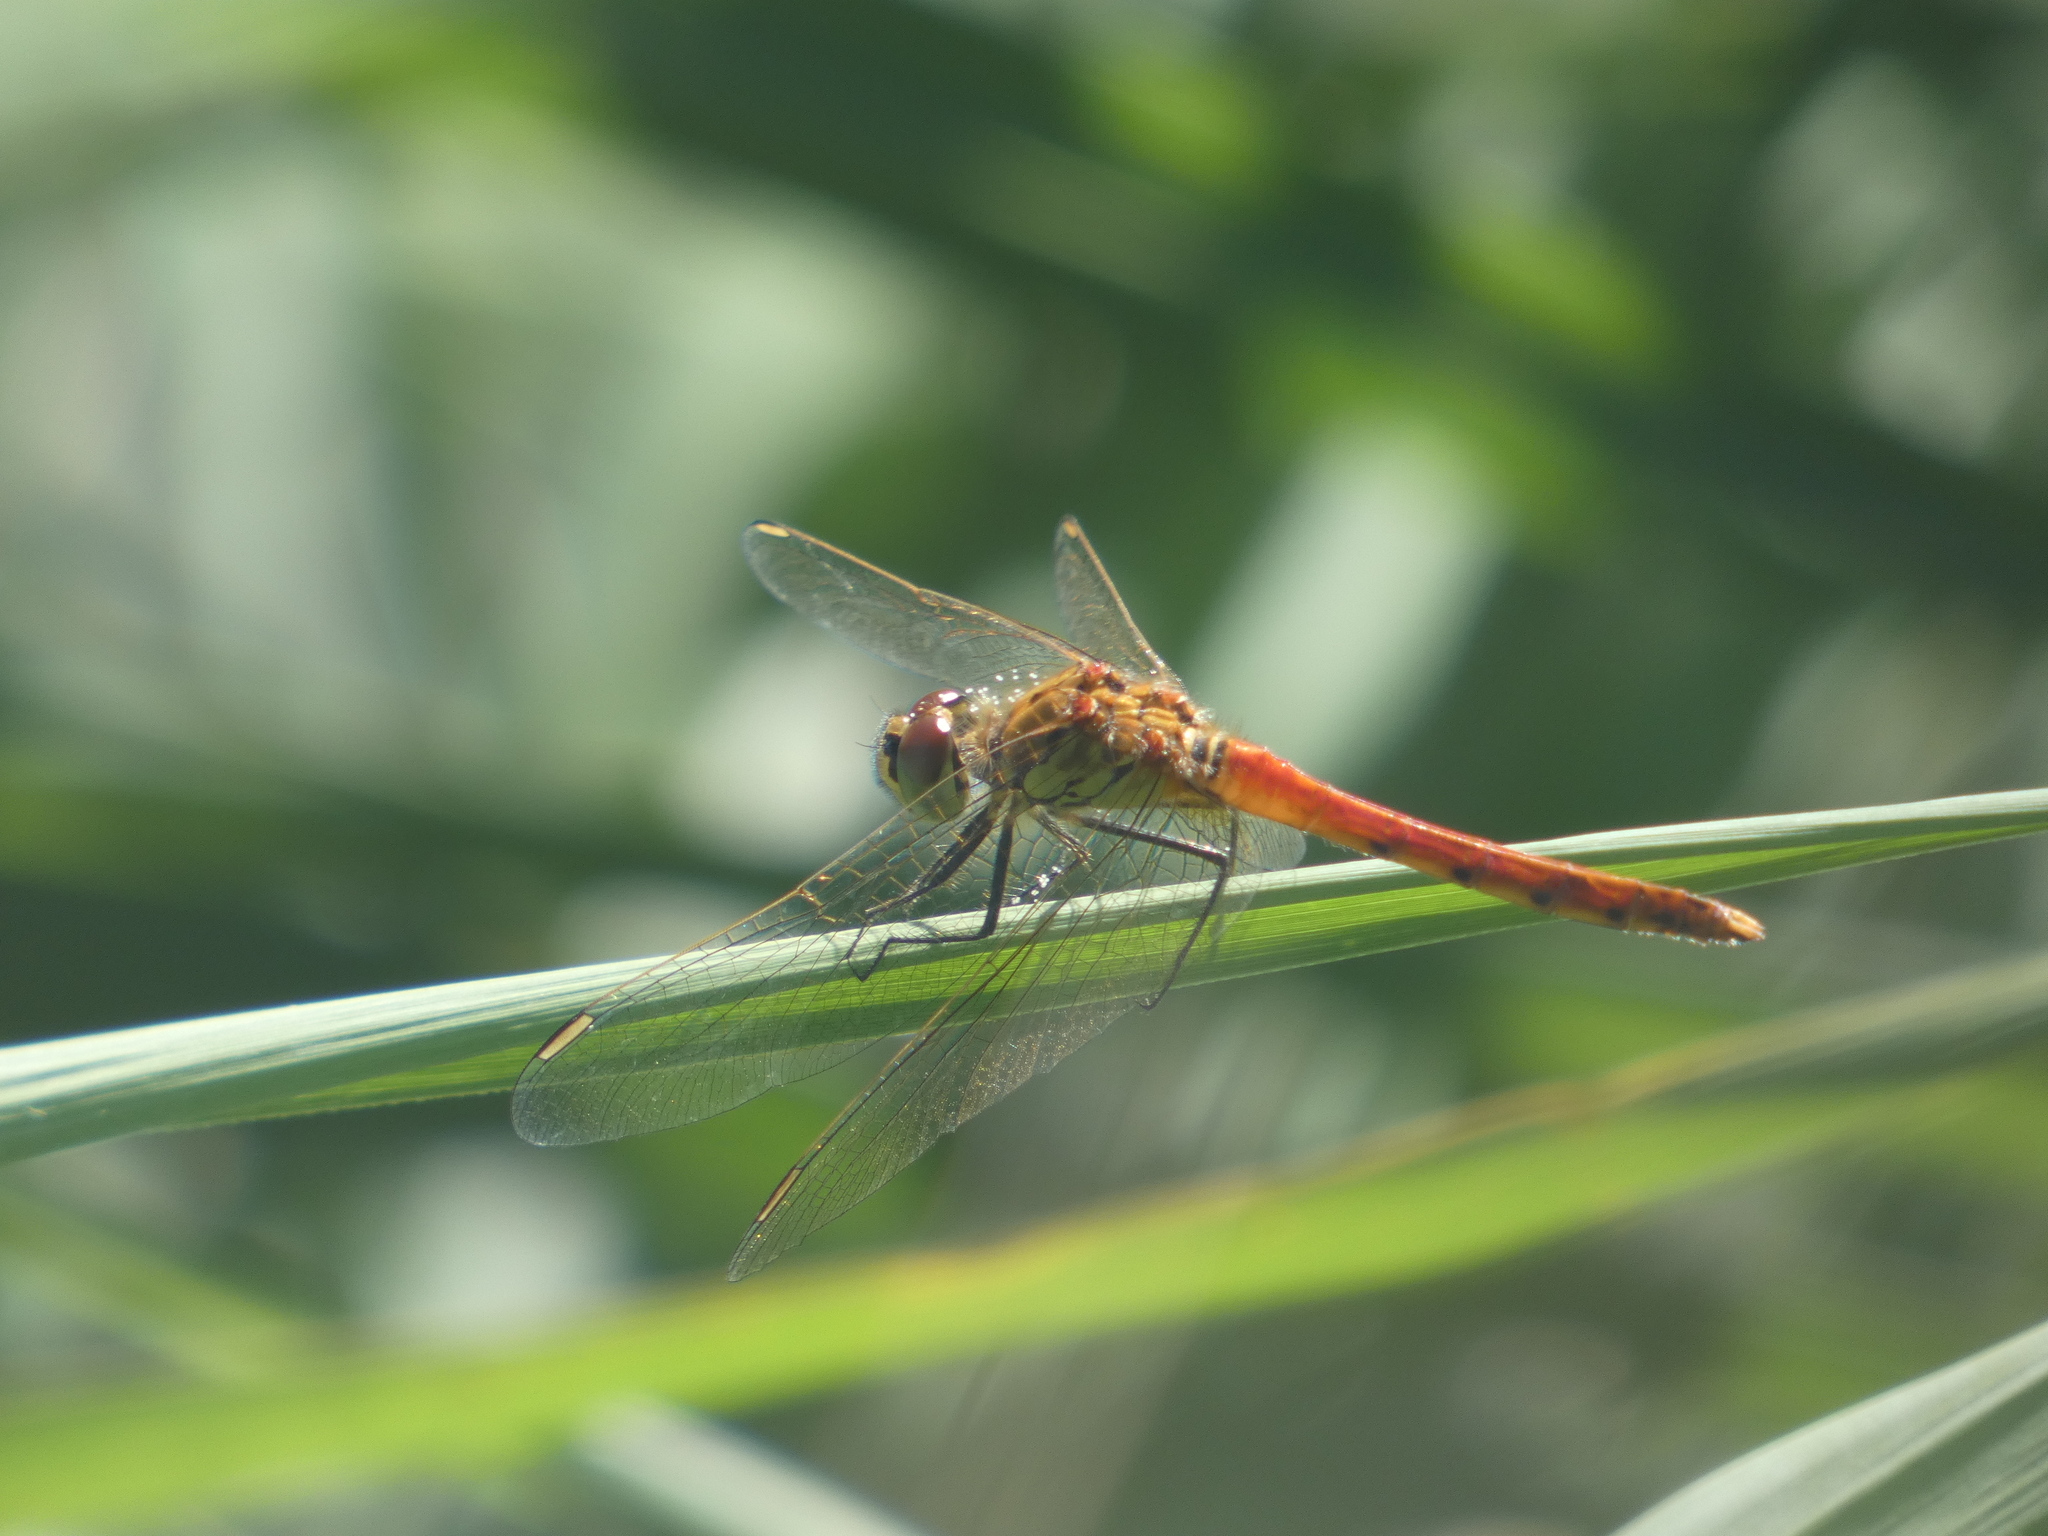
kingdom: Animalia
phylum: Arthropoda
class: Insecta
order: Odonata
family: Libellulidae
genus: Sympetrum
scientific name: Sympetrum depressiusculum
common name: Spotted darter
